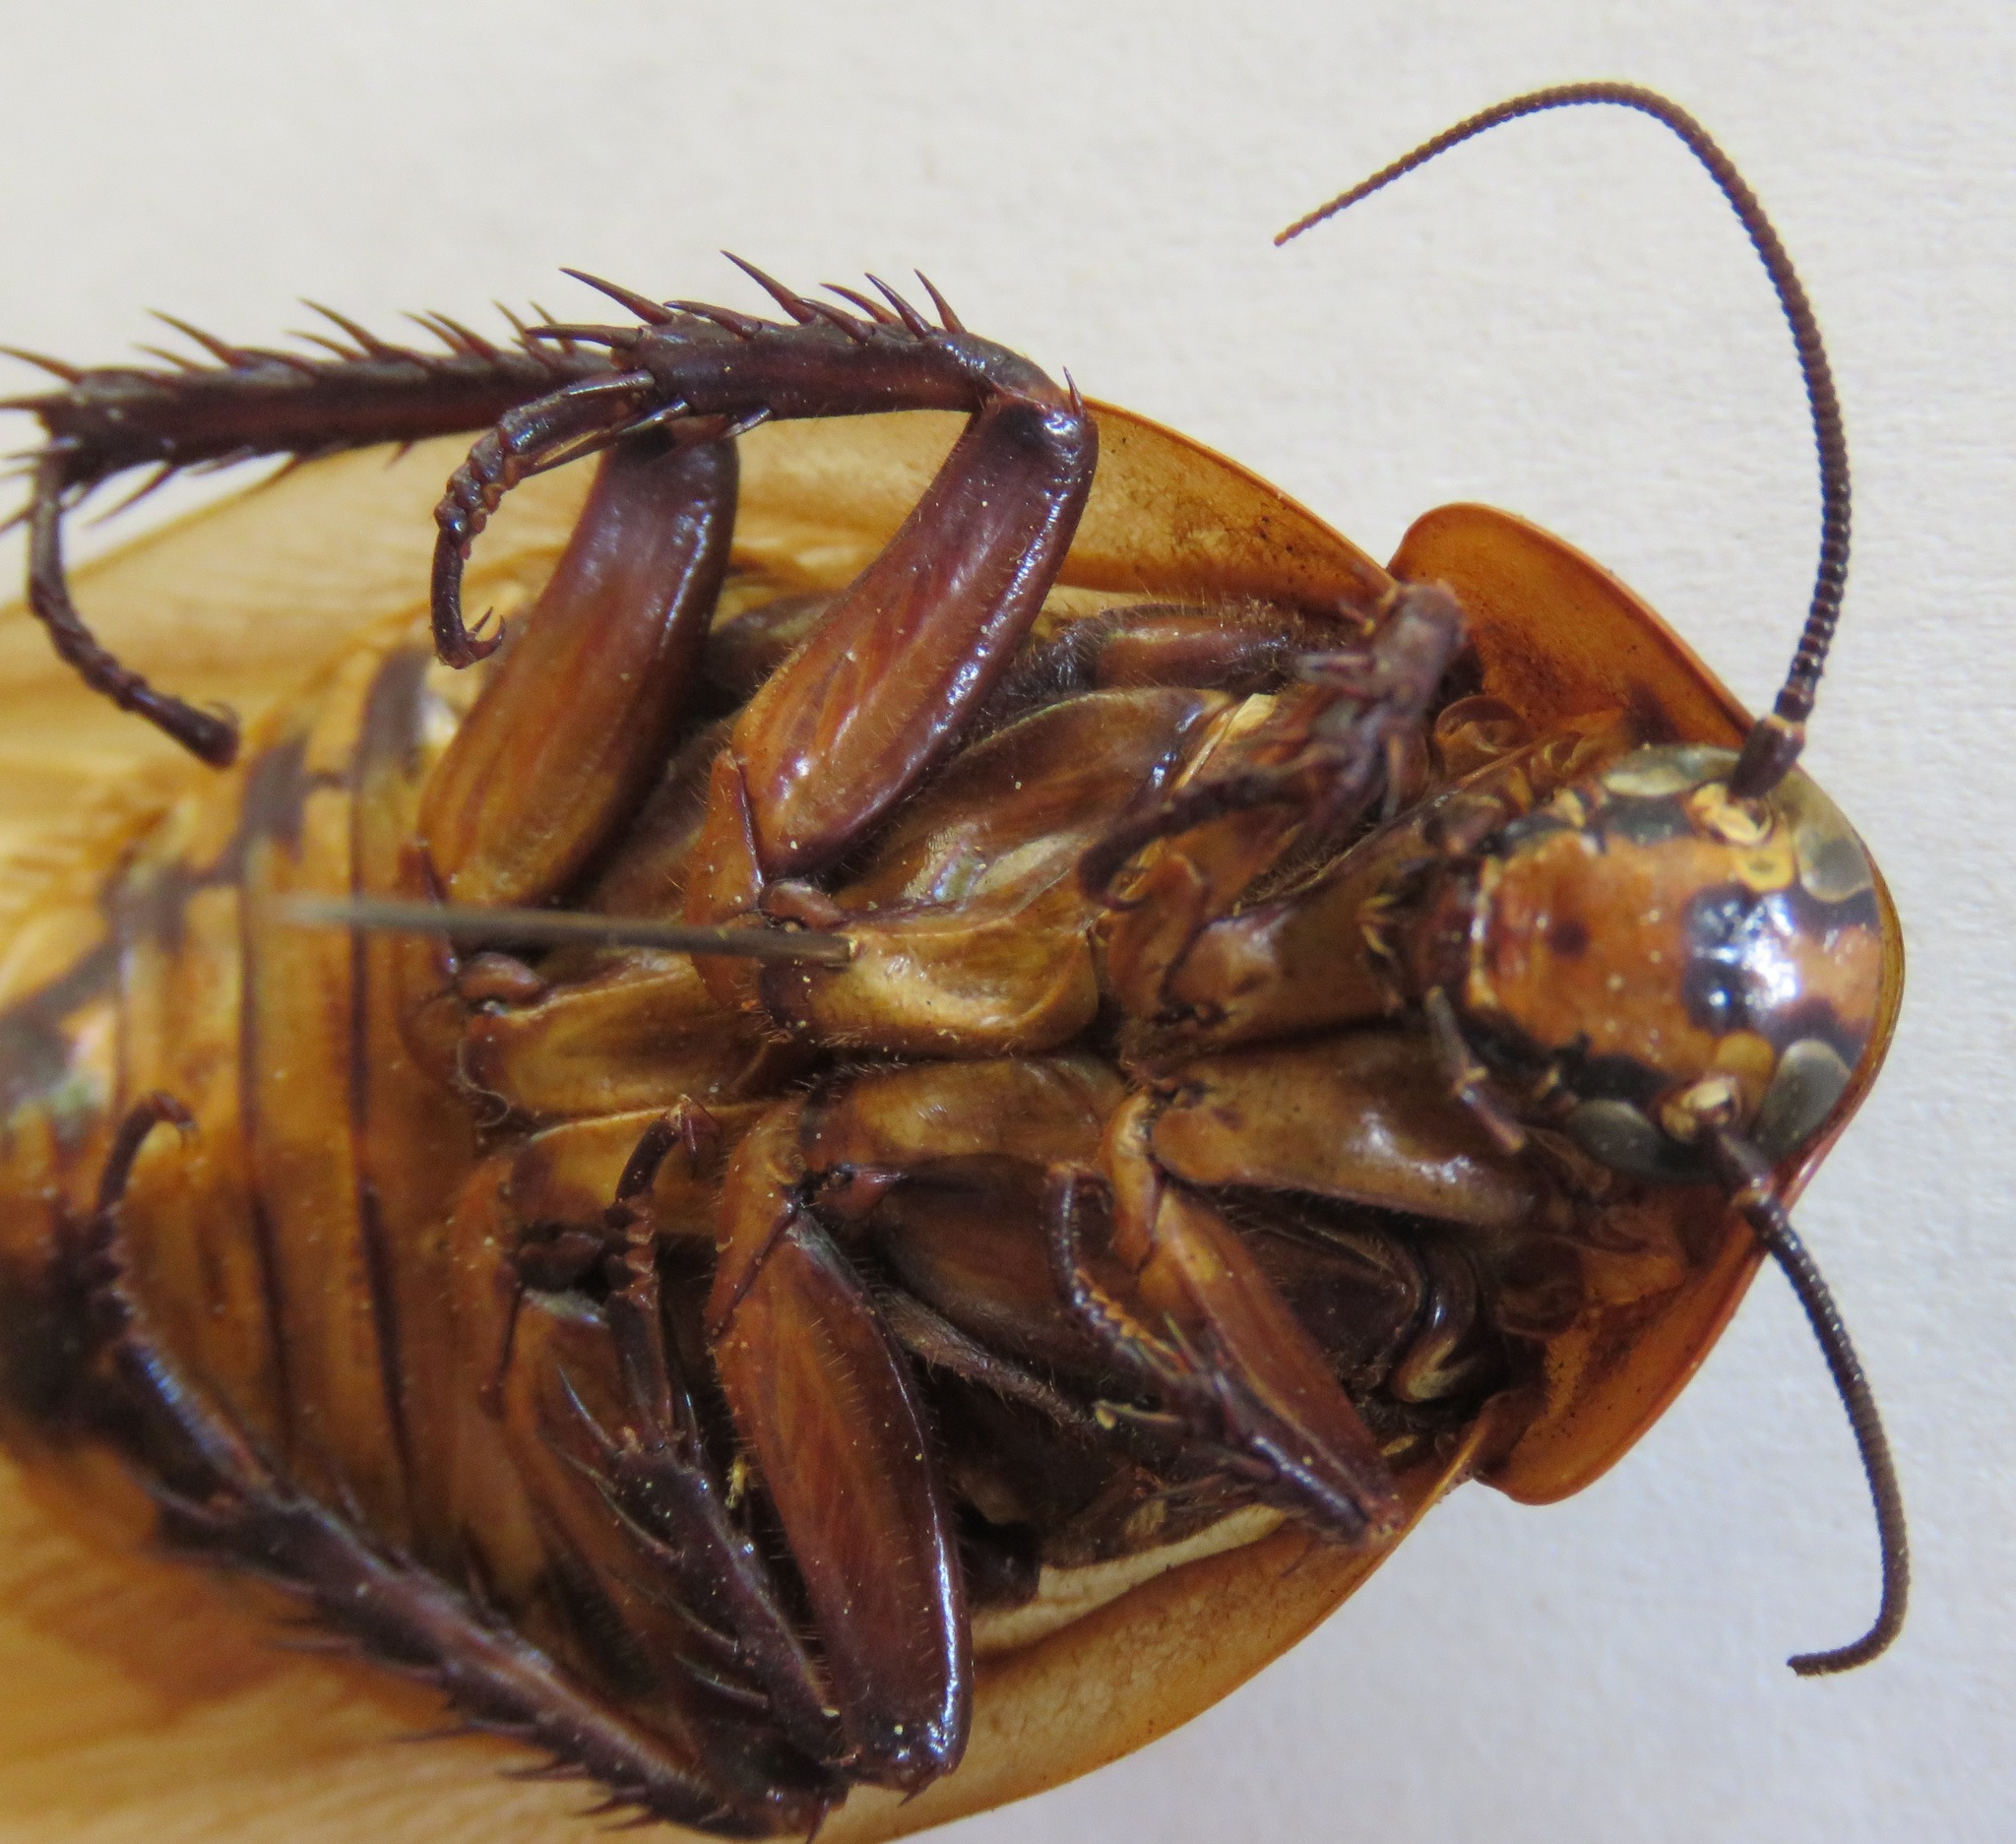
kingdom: Animalia
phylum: Arthropoda
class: Insecta
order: Blattodea
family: Blaberidae
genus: Eublaberus
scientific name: Eublaberus distanti
